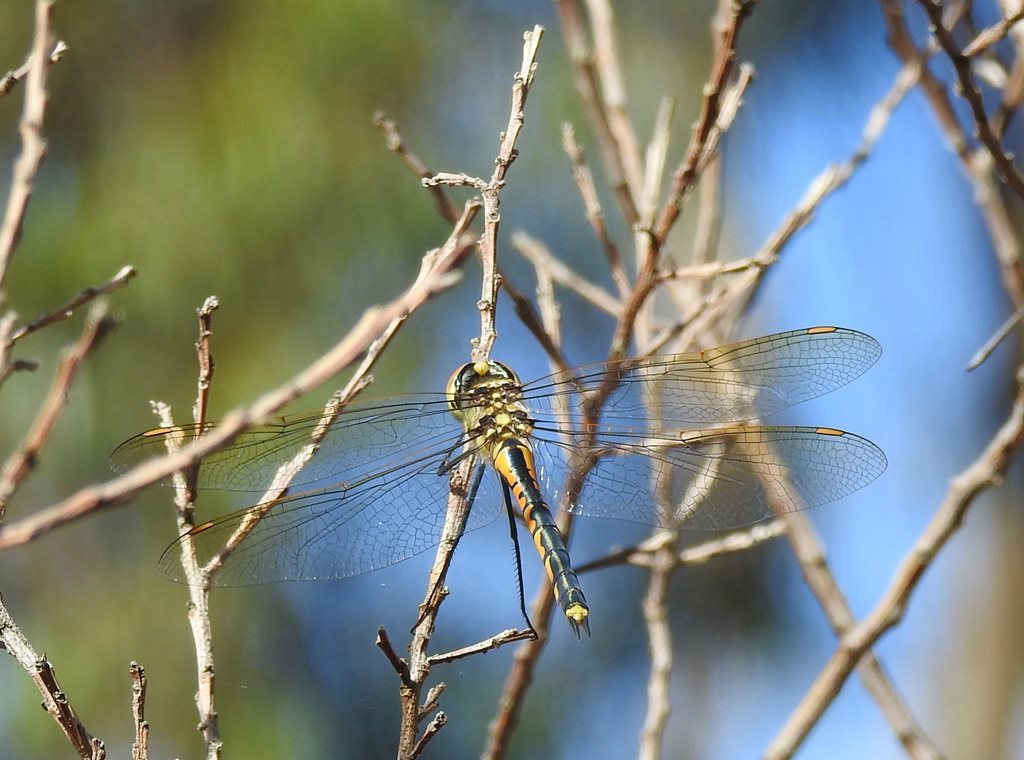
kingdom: Animalia
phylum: Arthropoda
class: Insecta
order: Odonata
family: Corduliidae
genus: Hemicordulia
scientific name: Hemicordulia tau
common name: Tau emerald
